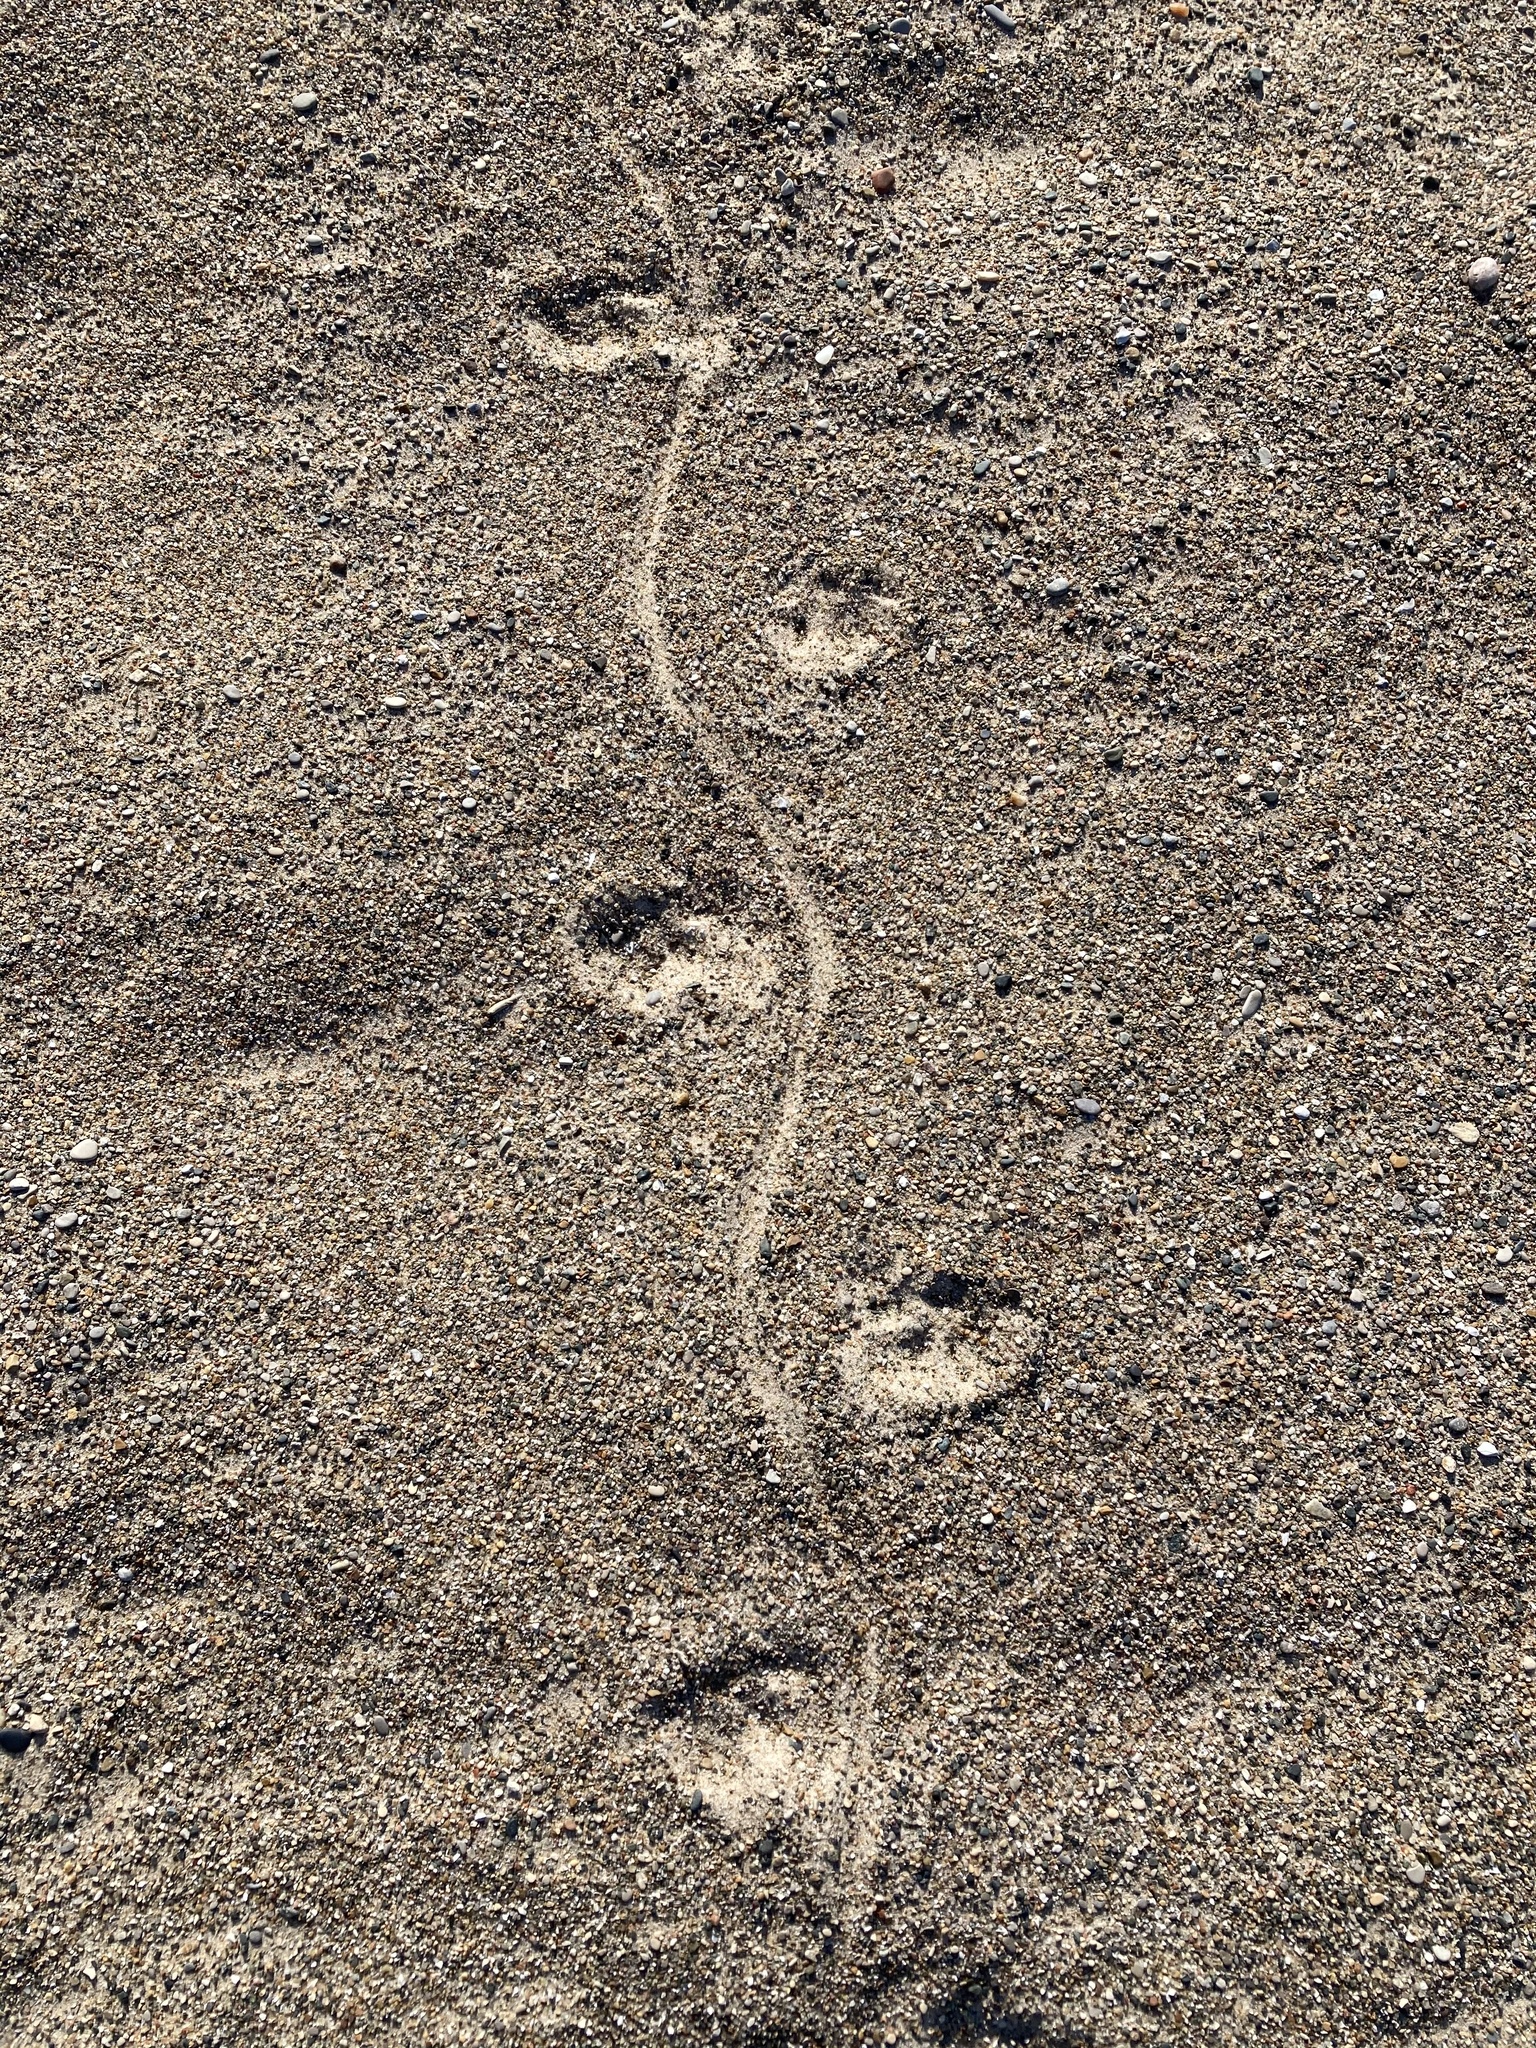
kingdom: Animalia
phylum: Chordata
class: Mammalia
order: Rodentia
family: Cricetidae
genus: Ondatra
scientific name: Ondatra zibethicus
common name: Muskrat
